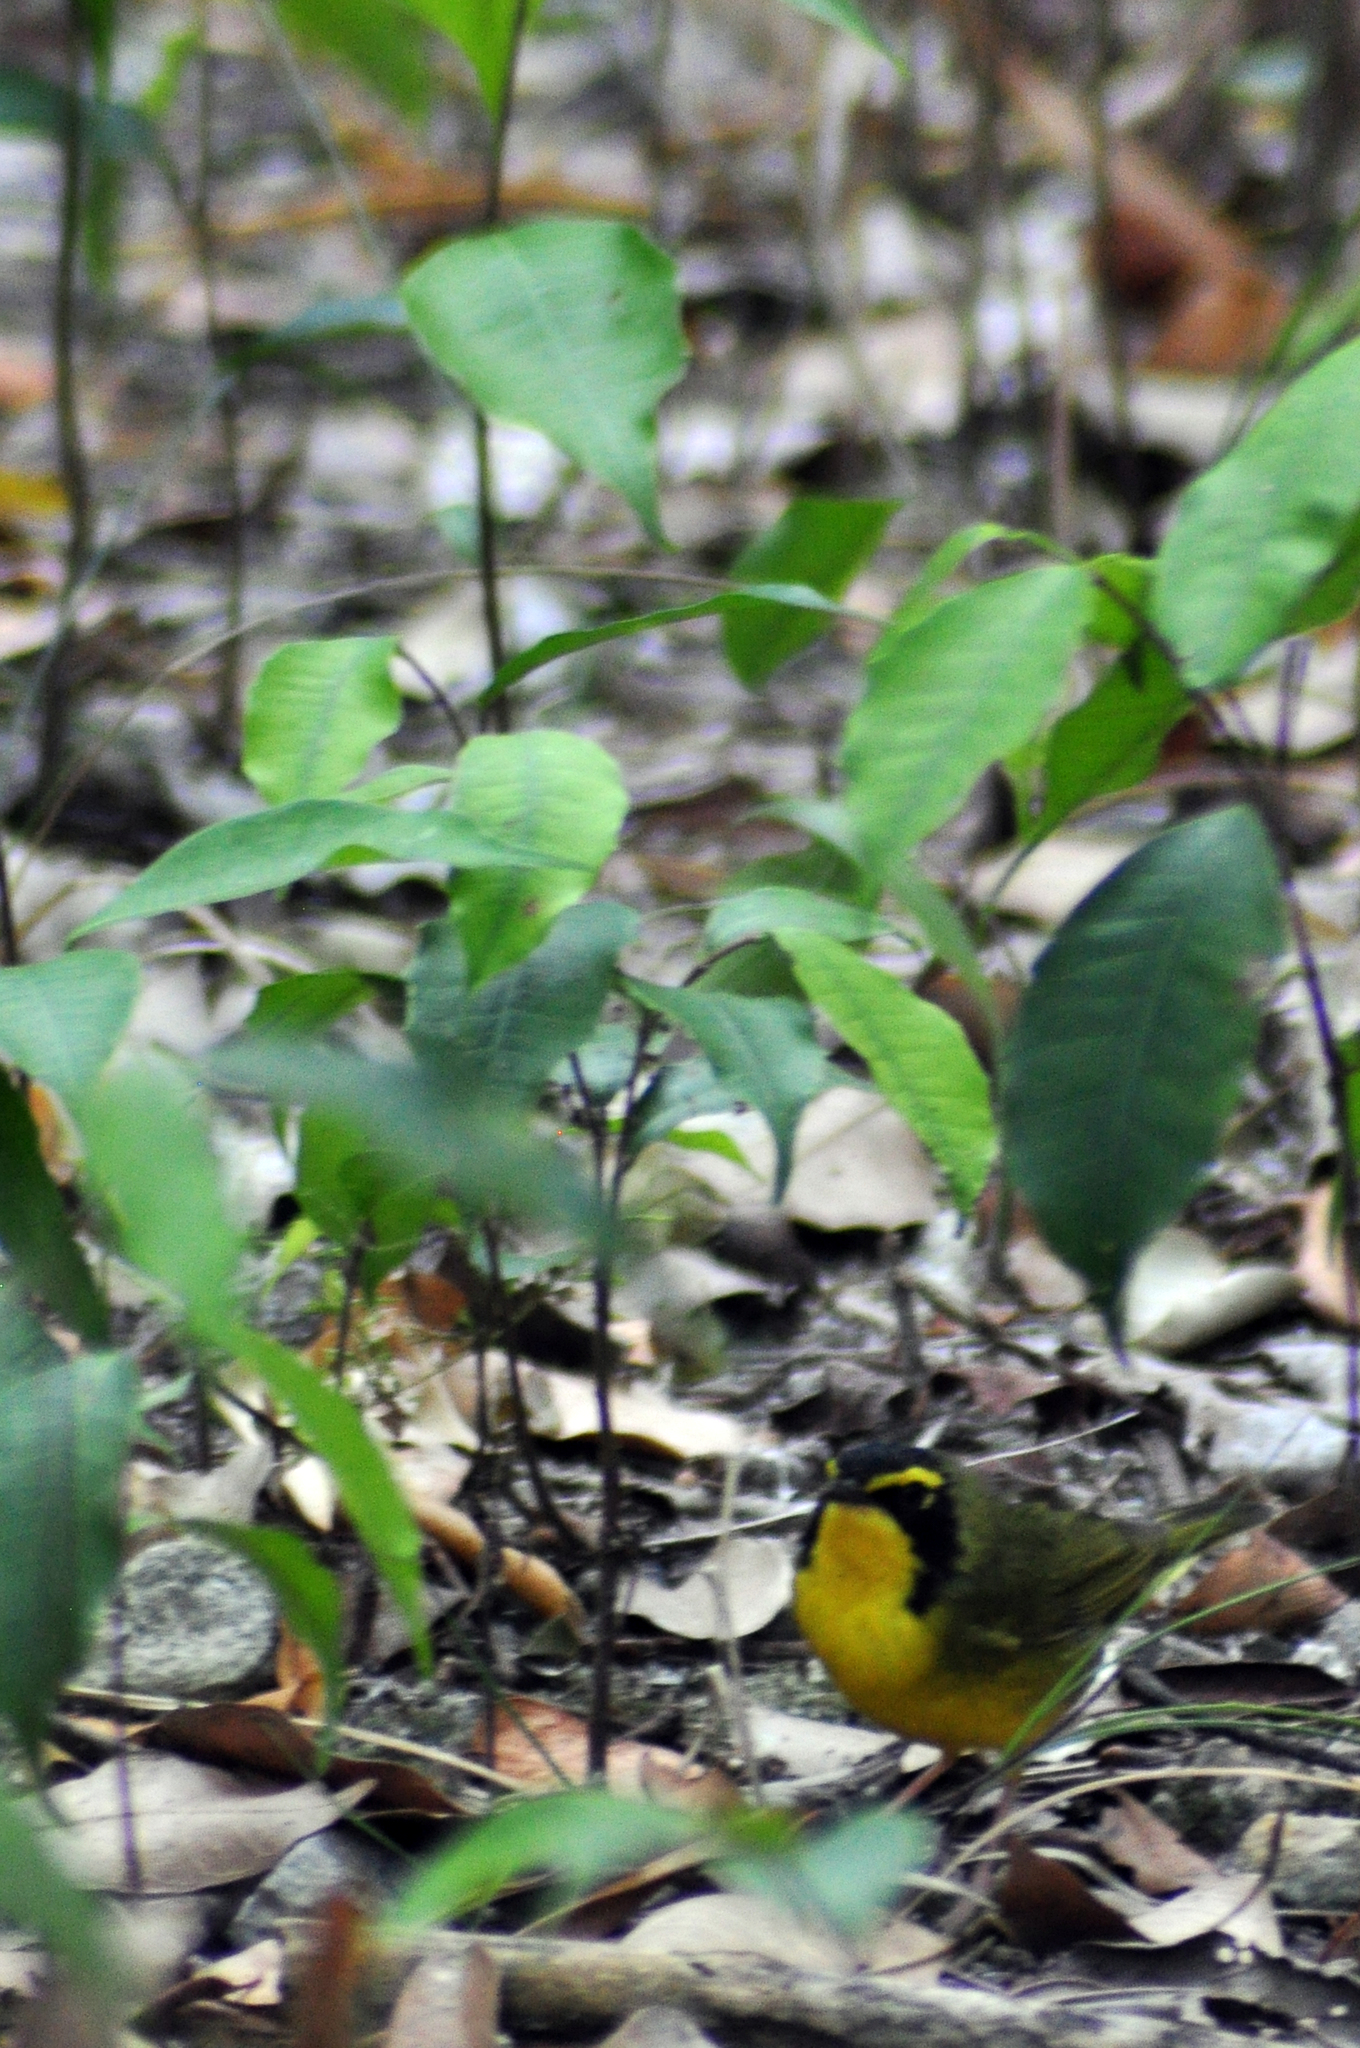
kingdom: Animalia
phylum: Chordata
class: Aves
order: Passeriformes
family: Parulidae
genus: Geothlypis
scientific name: Geothlypis formosa
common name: Kentucky warbler
